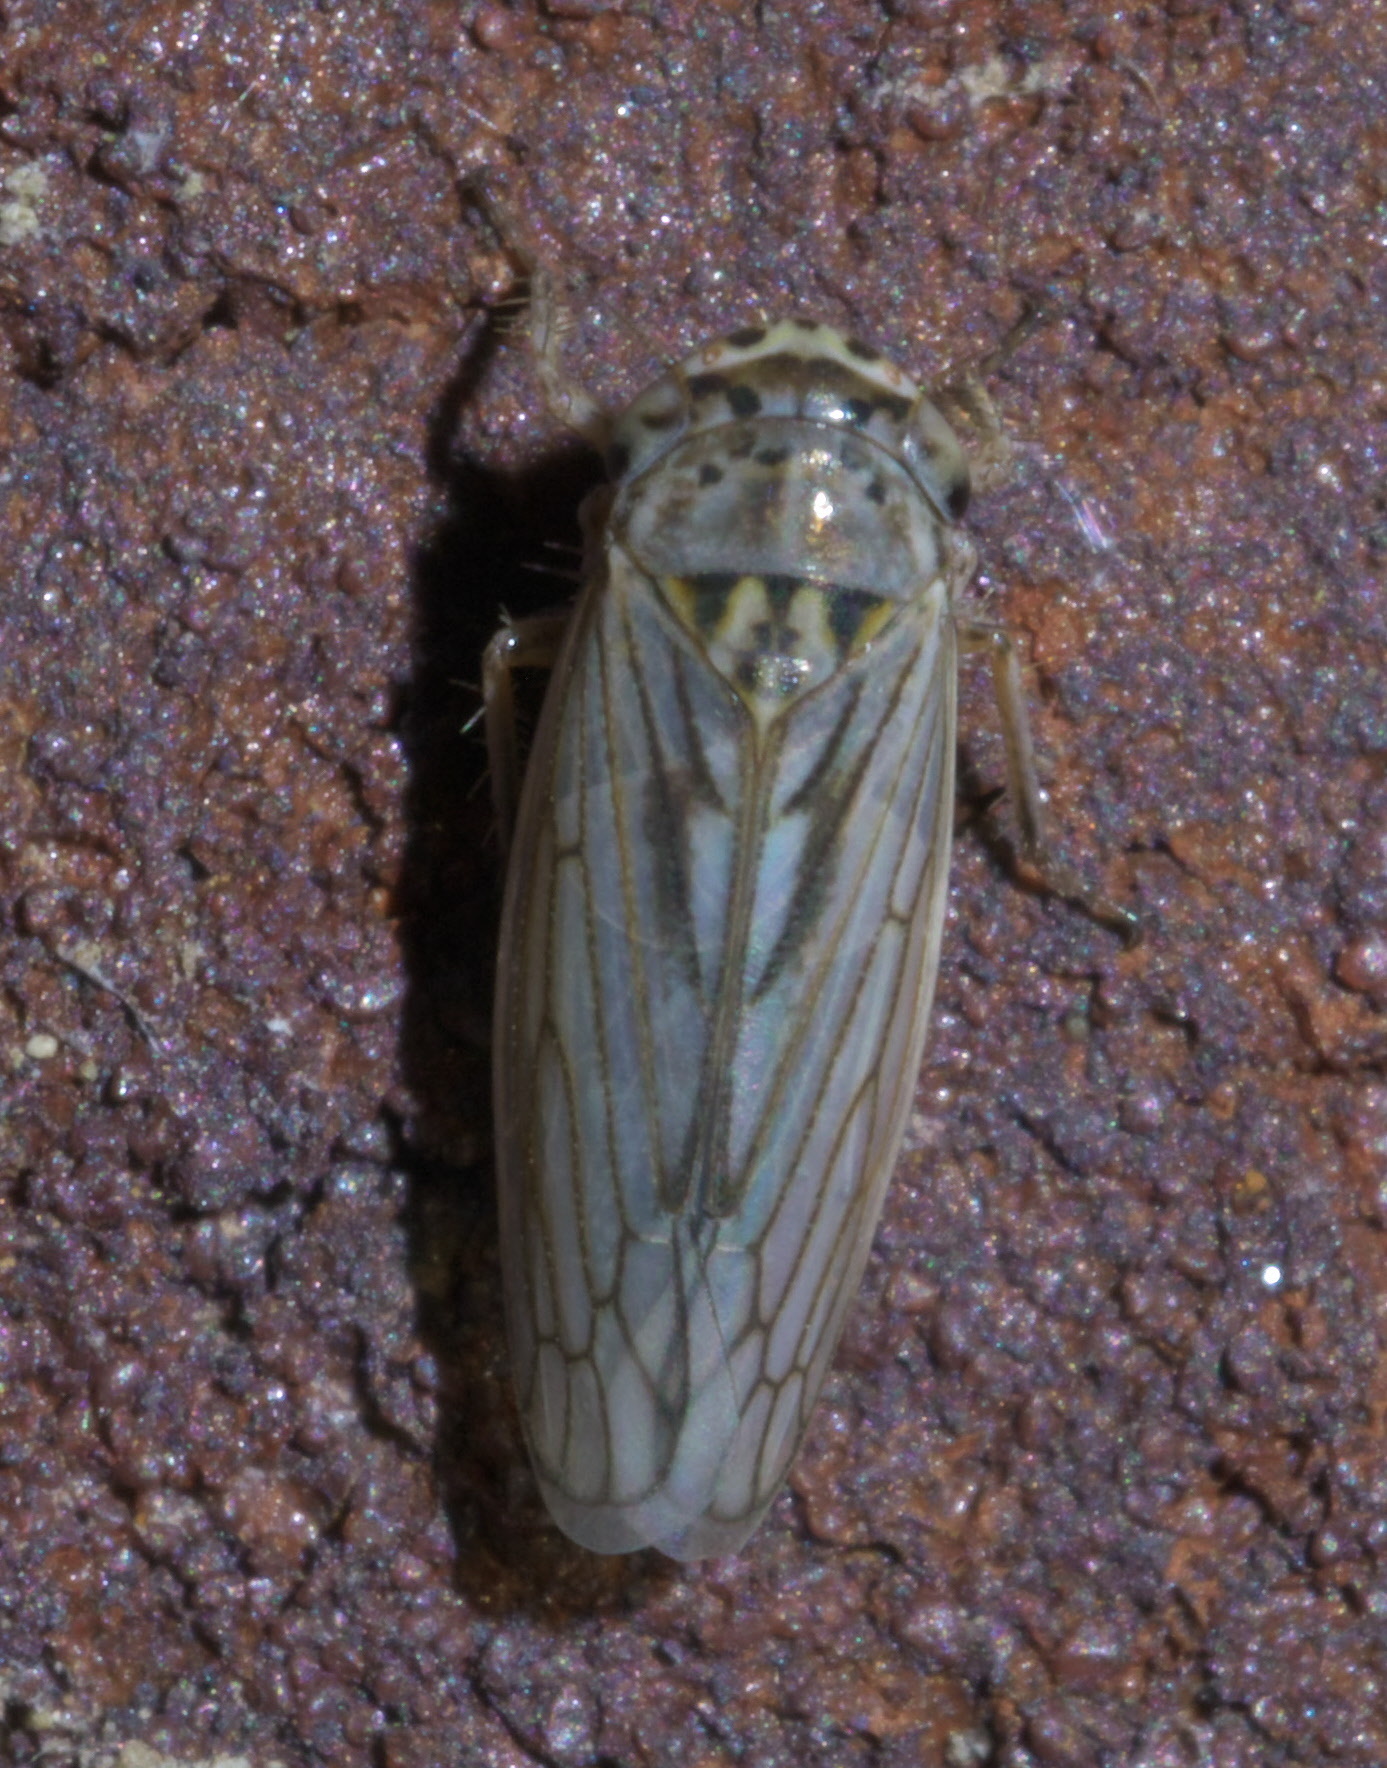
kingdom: Animalia
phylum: Arthropoda
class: Insecta
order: Hemiptera
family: Cicadellidae
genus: Exitianus
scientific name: Exitianus exitiosus
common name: Gray lawn leafhopper
